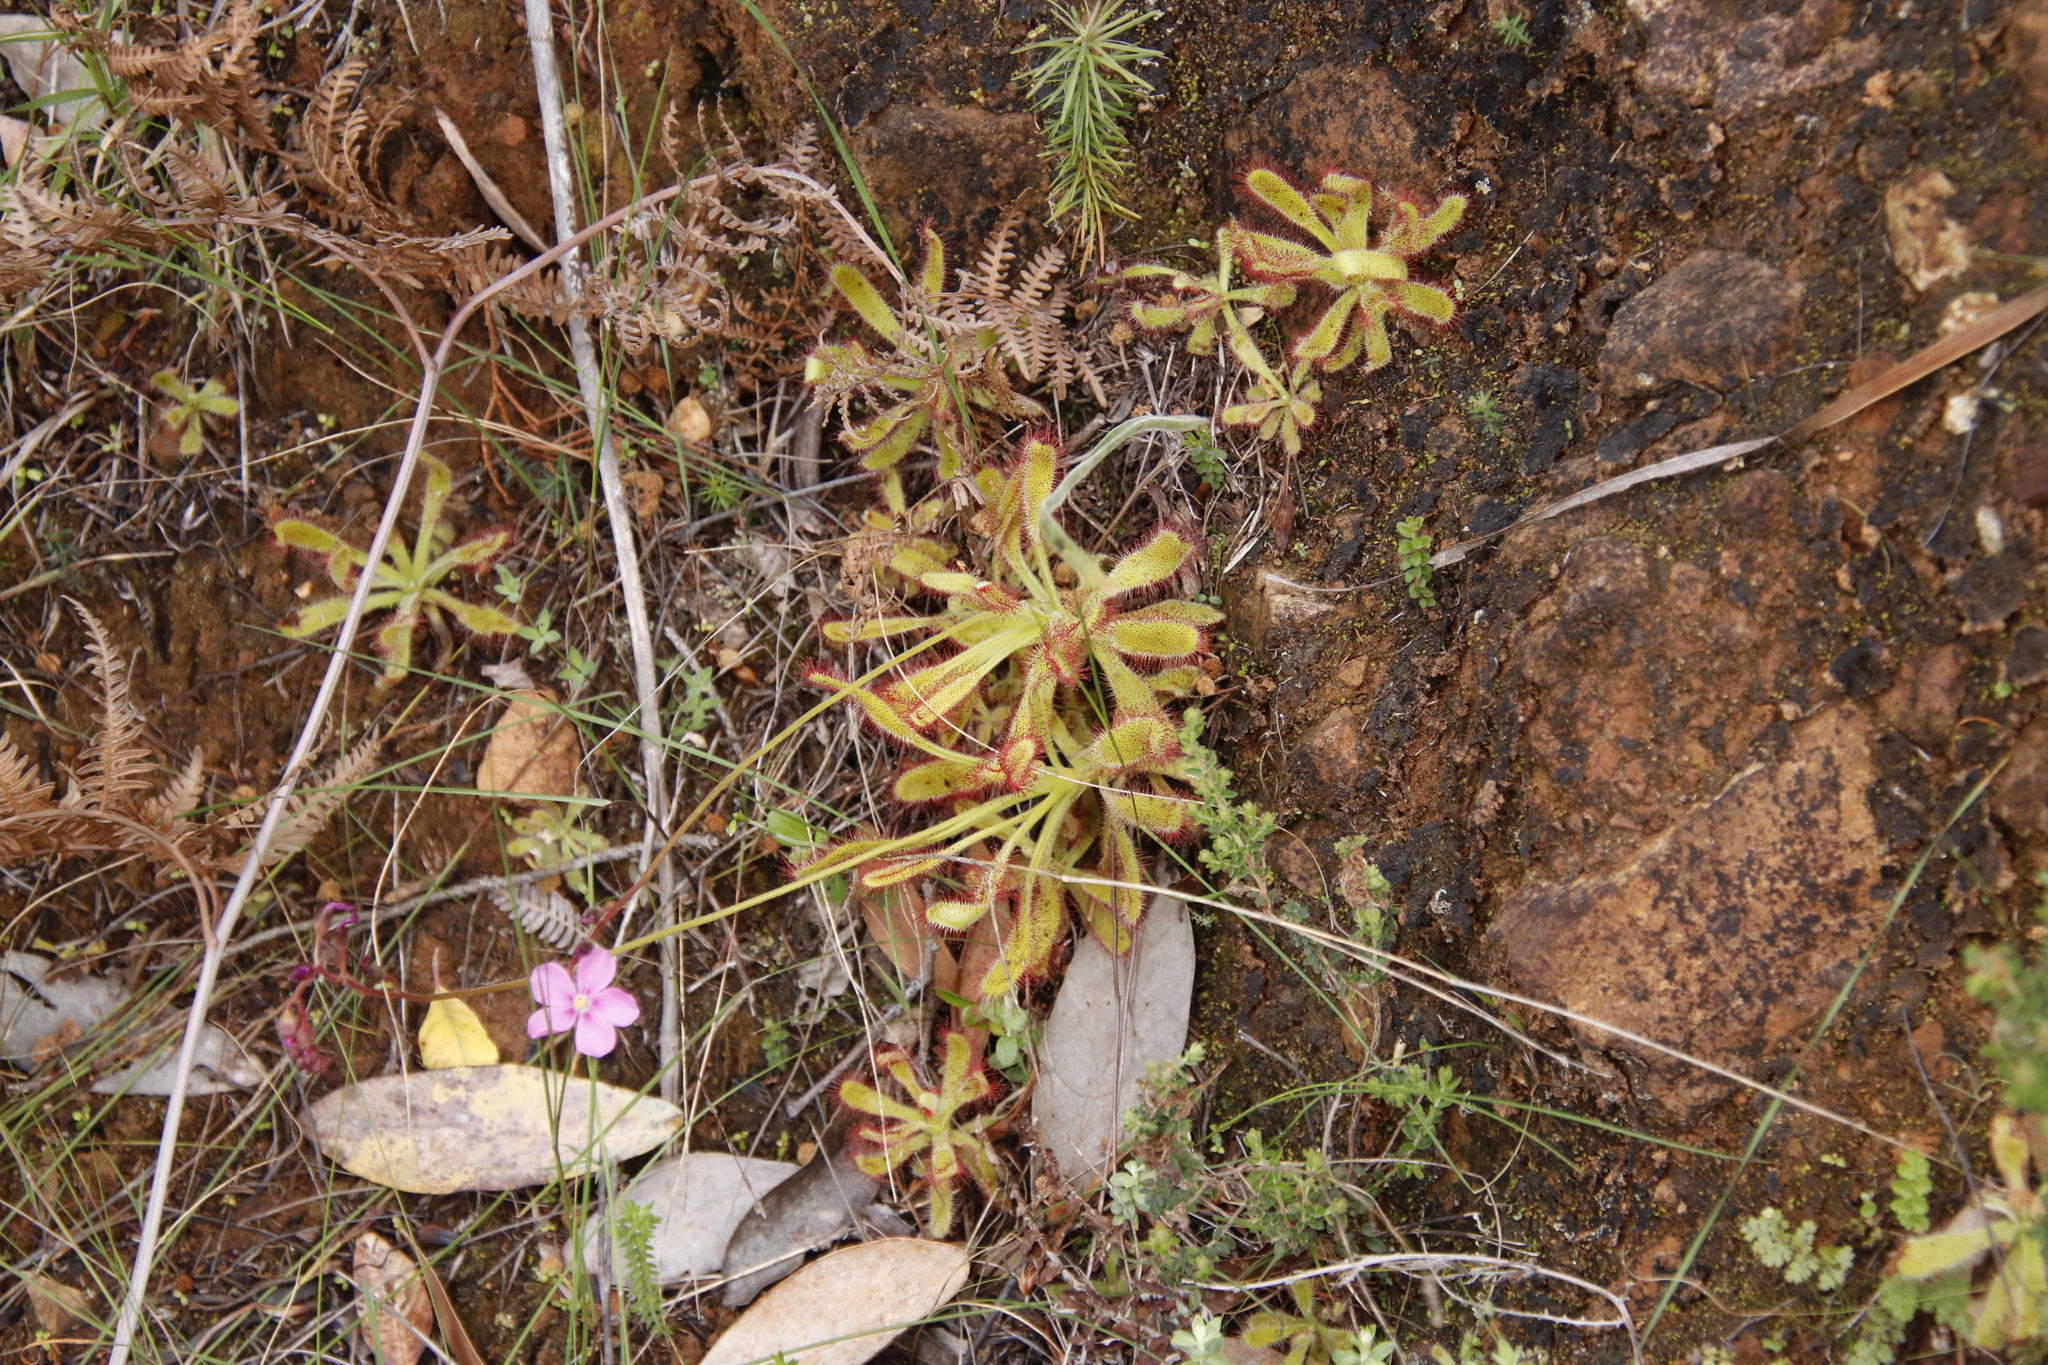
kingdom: Plantae
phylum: Tracheophyta
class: Magnoliopsida
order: Caryophyllales
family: Droseraceae
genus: Drosera
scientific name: Drosera hilaris
